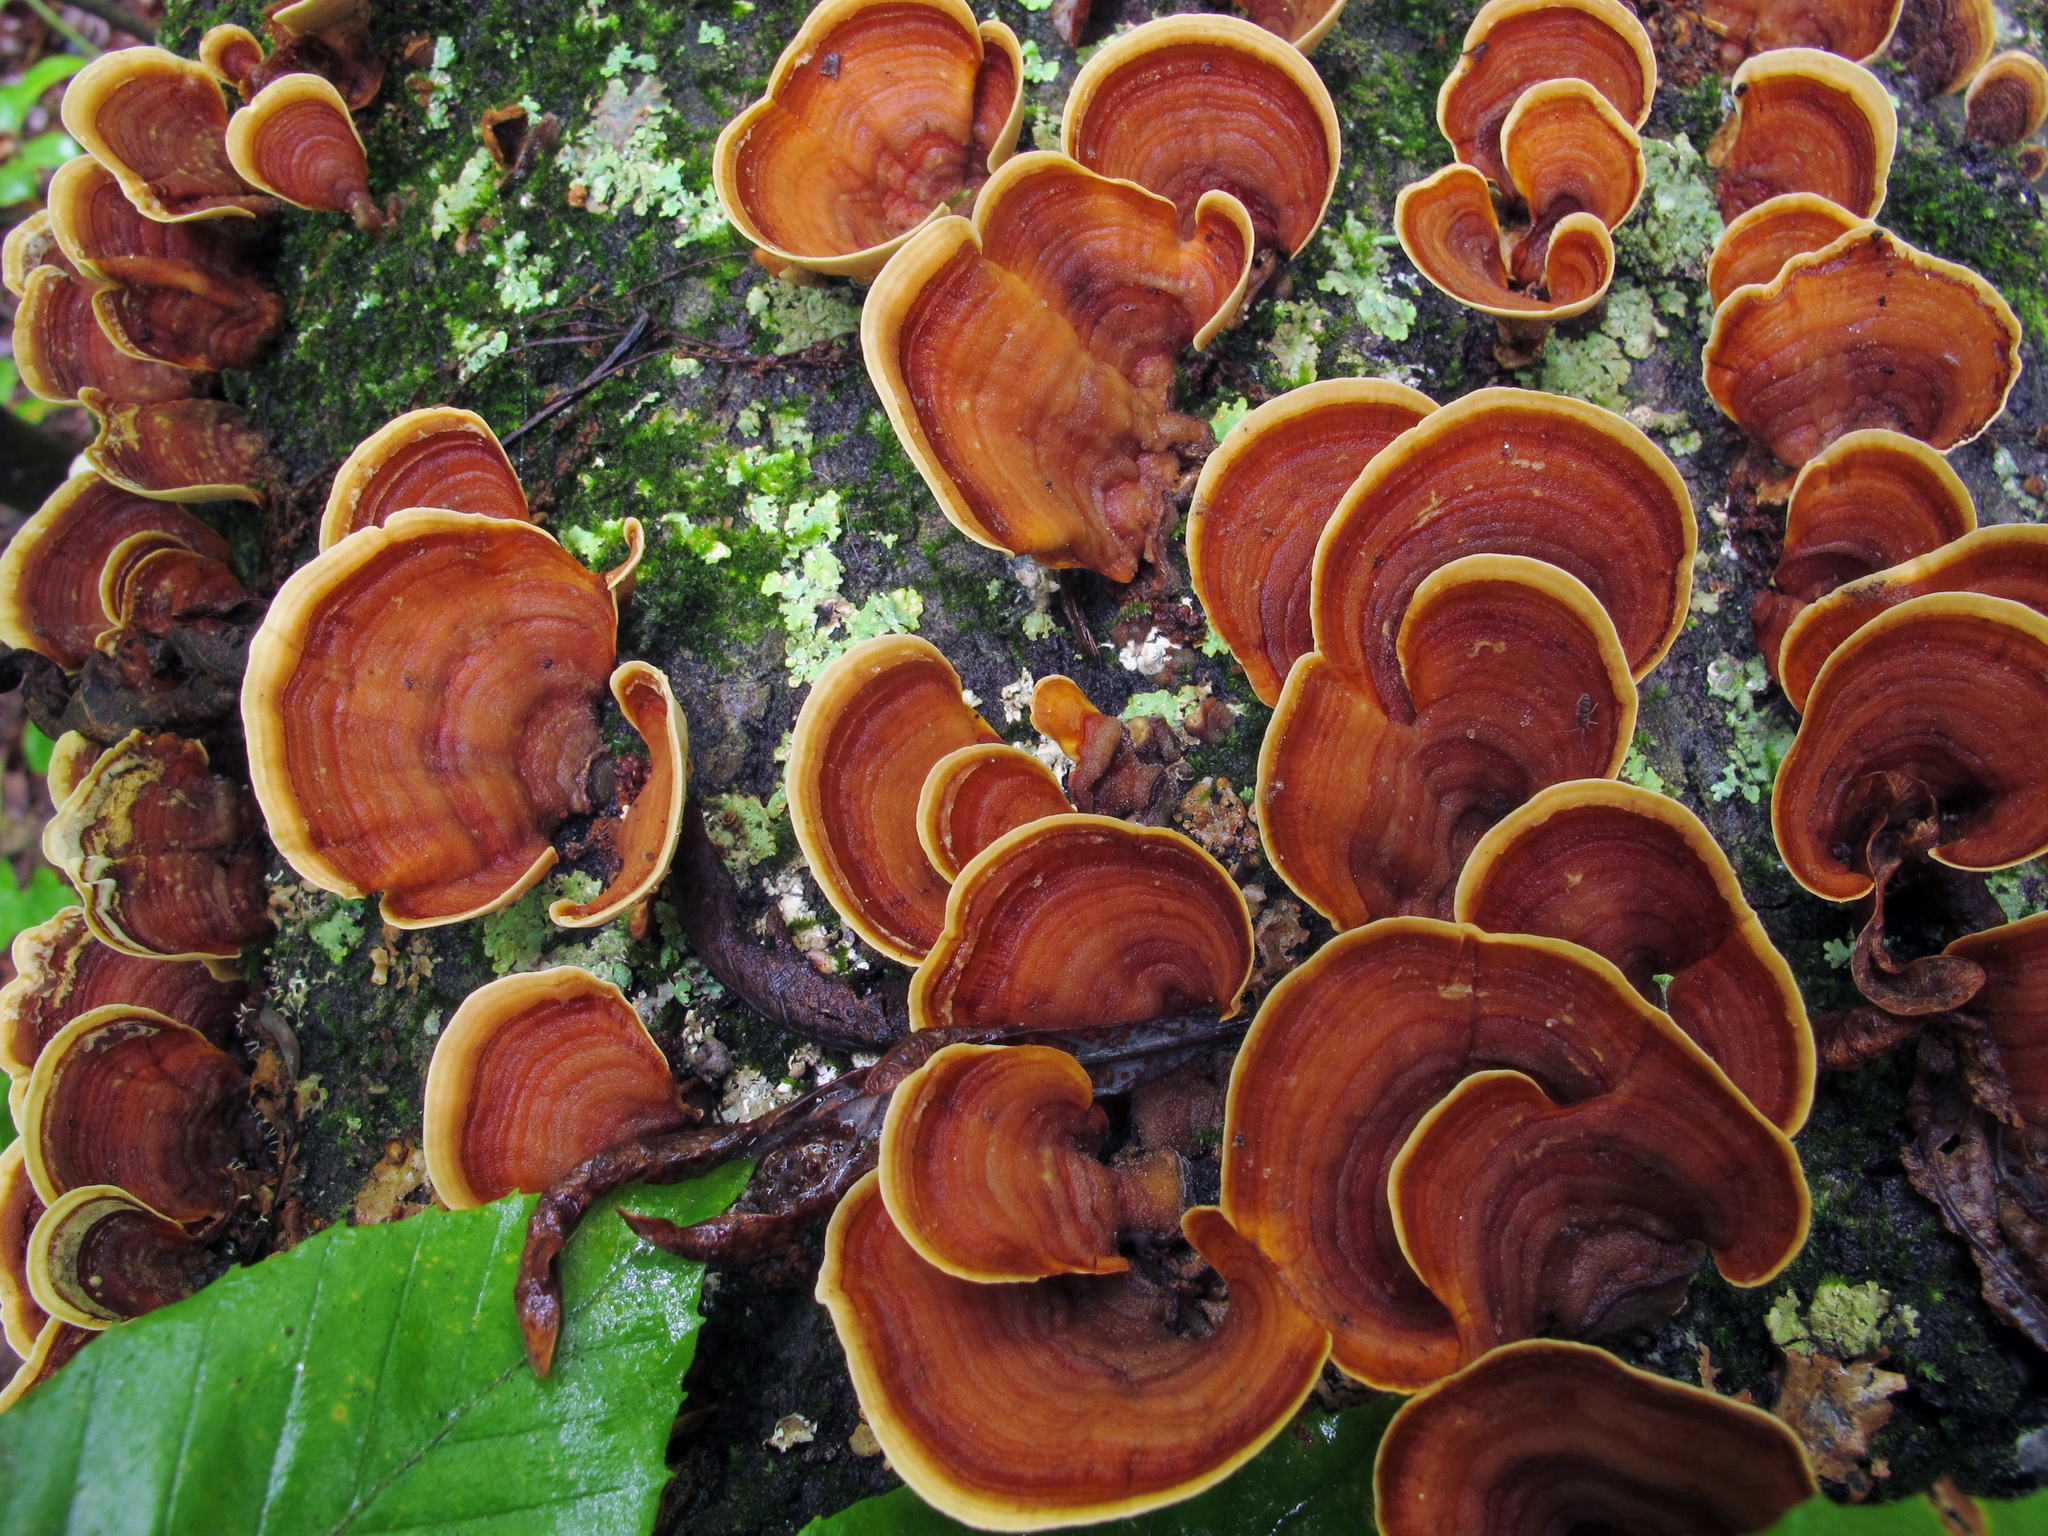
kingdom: Fungi
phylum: Basidiomycota
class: Agaricomycetes
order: Russulales
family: Stereaceae
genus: Stereum
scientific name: Stereum ostrea
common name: False turkeytail
